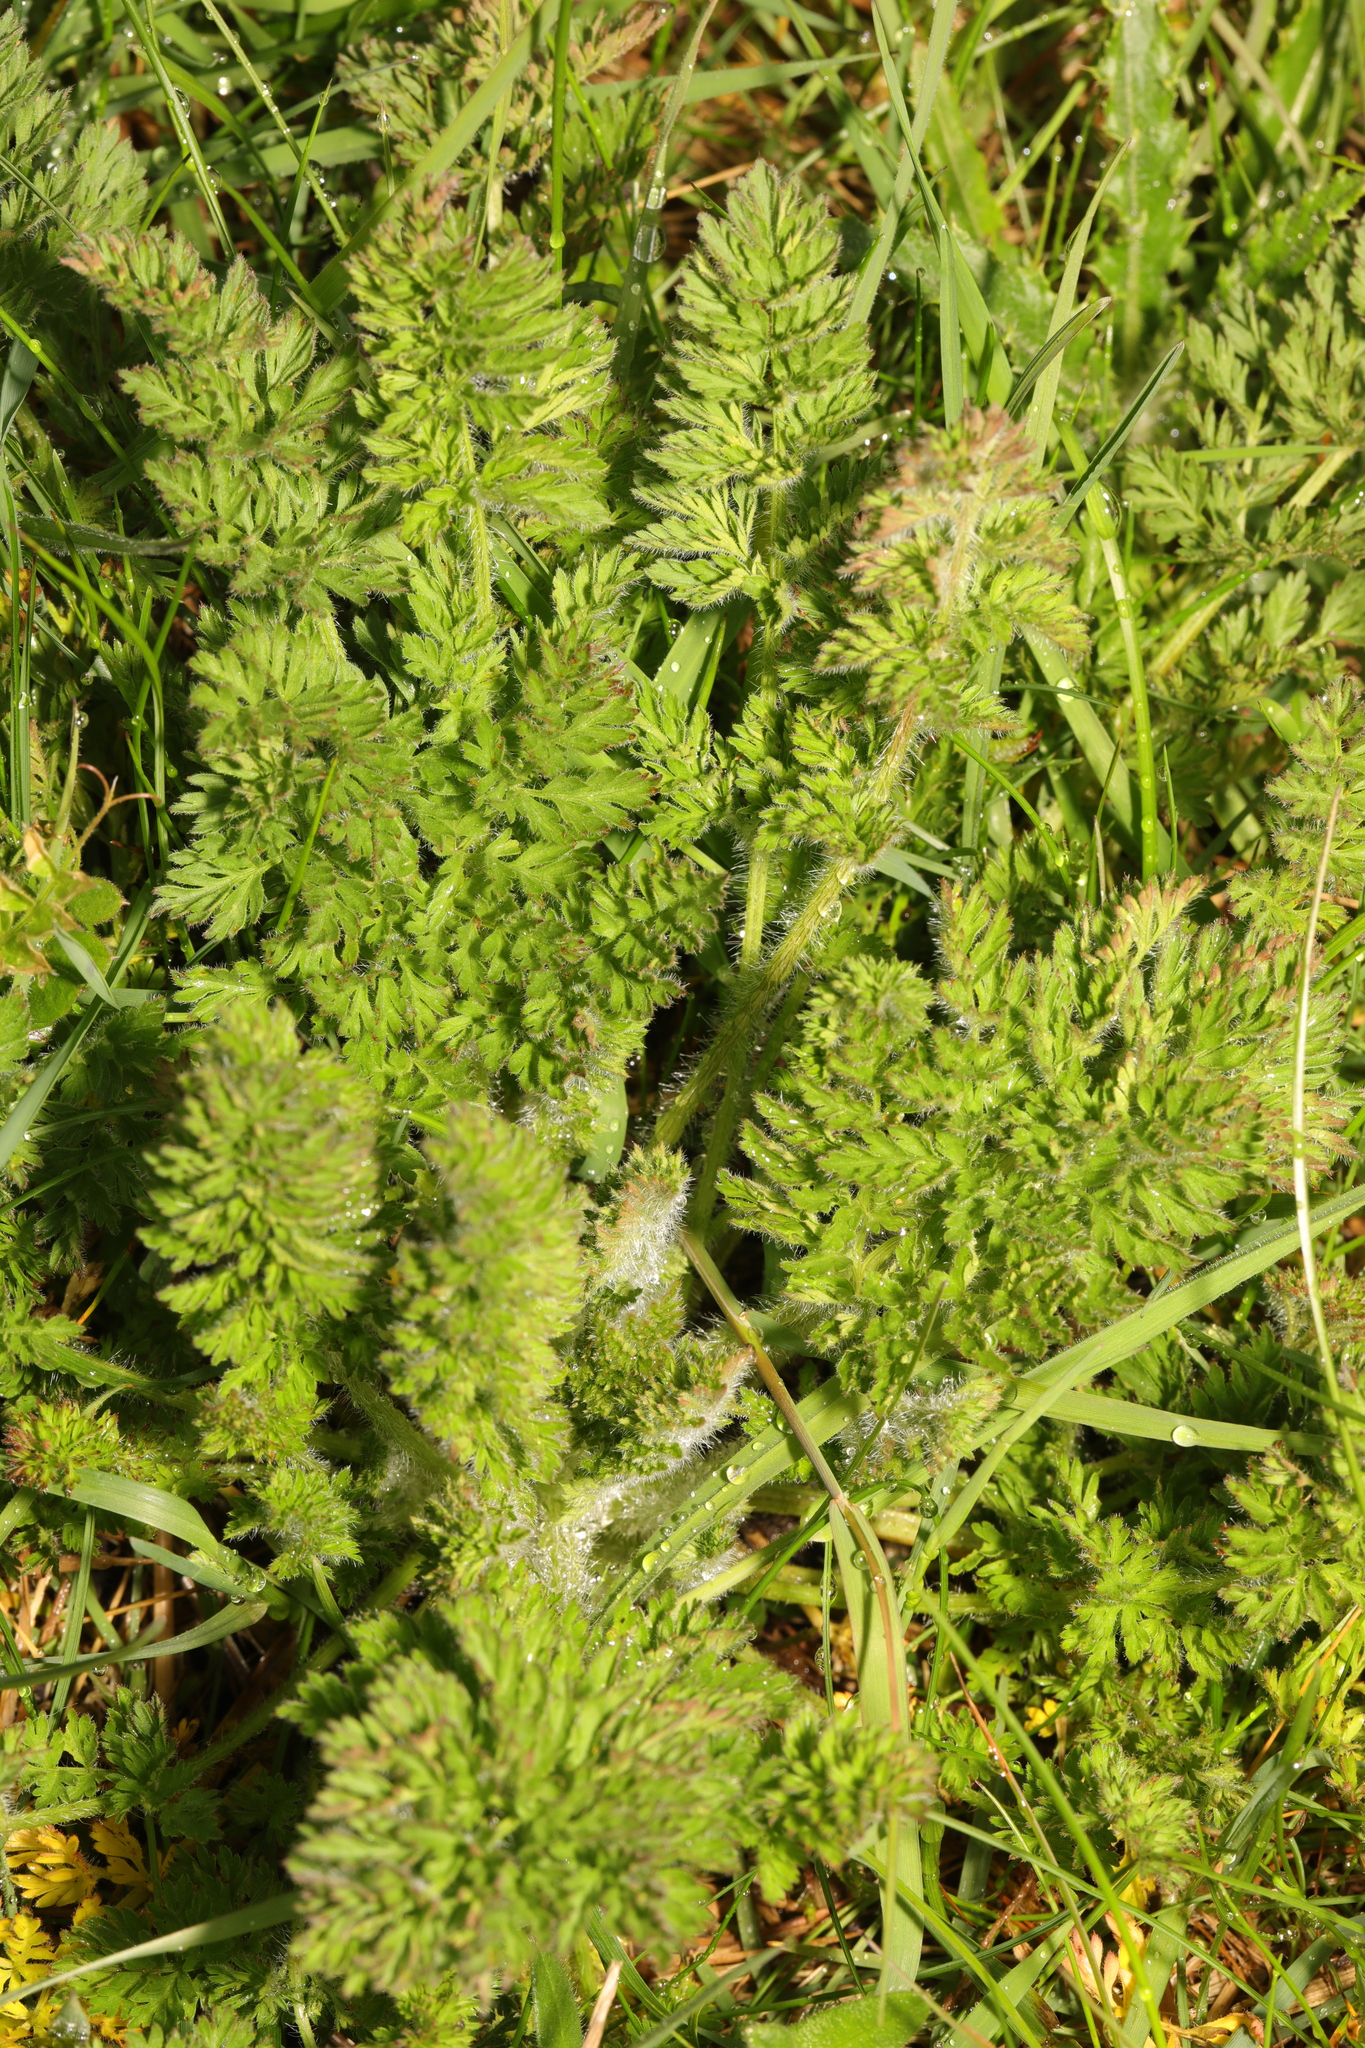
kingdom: Plantae
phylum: Tracheophyta
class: Magnoliopsida
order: Apiales
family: Apiaceae
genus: Daucus
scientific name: Daucus carota
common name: Wild carrot
